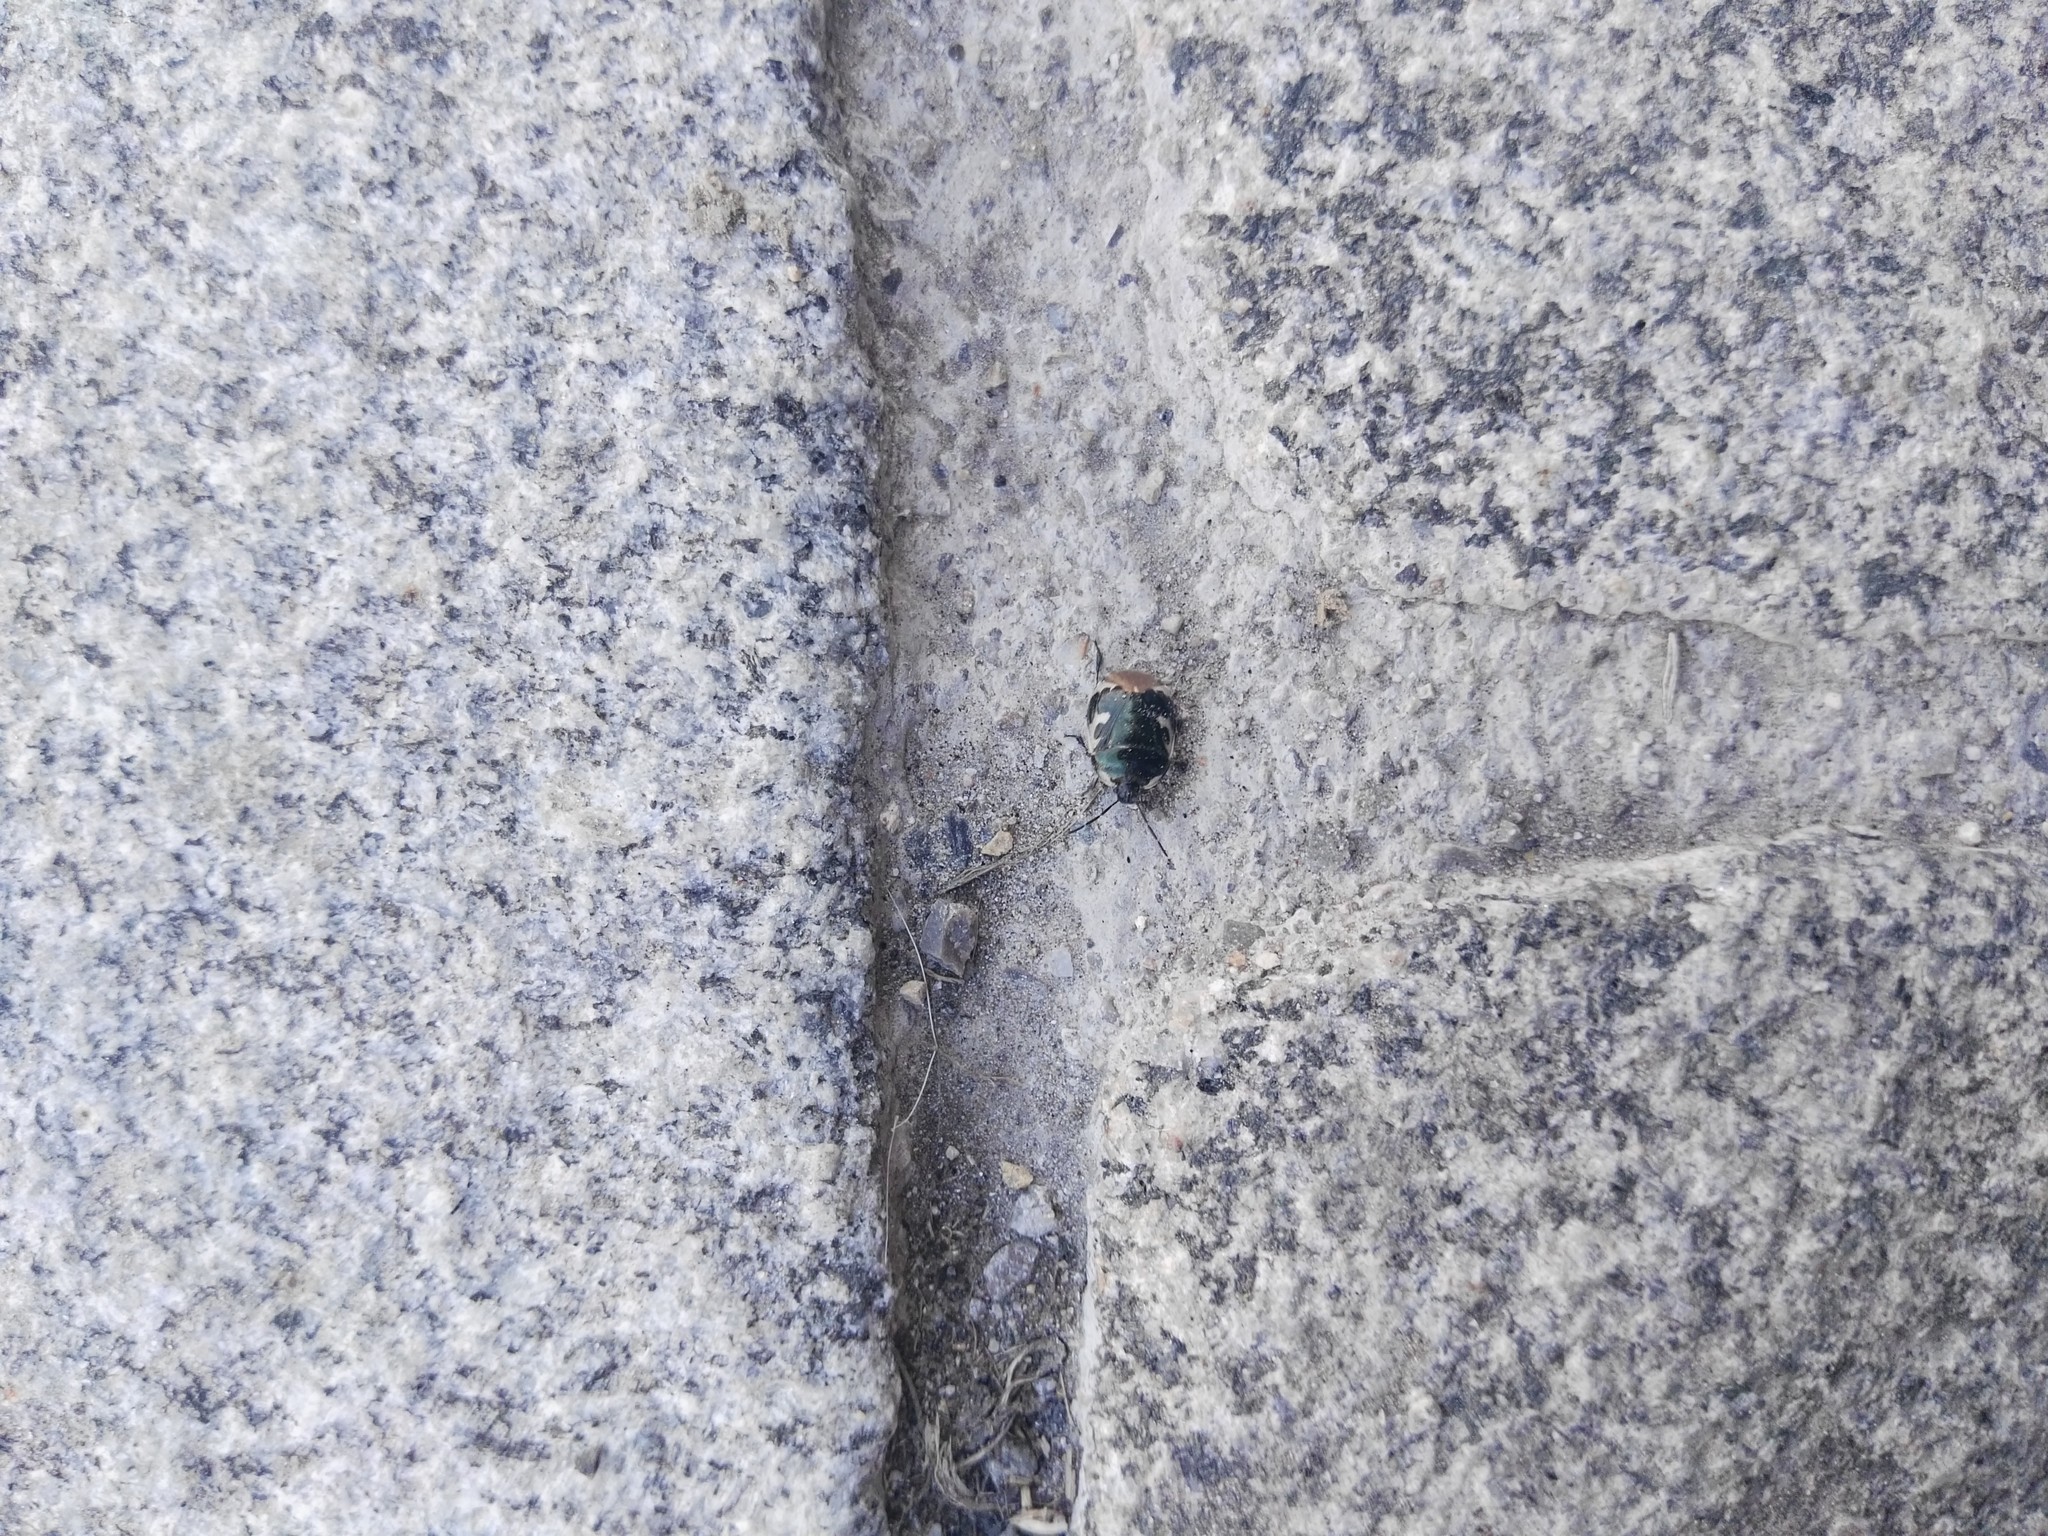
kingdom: Animalia
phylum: Arthropoda
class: Insecta
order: Hemiptera
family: Cydnidae
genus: Tritomegas
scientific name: Tritomegas bicolor
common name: Pied shieldbug
